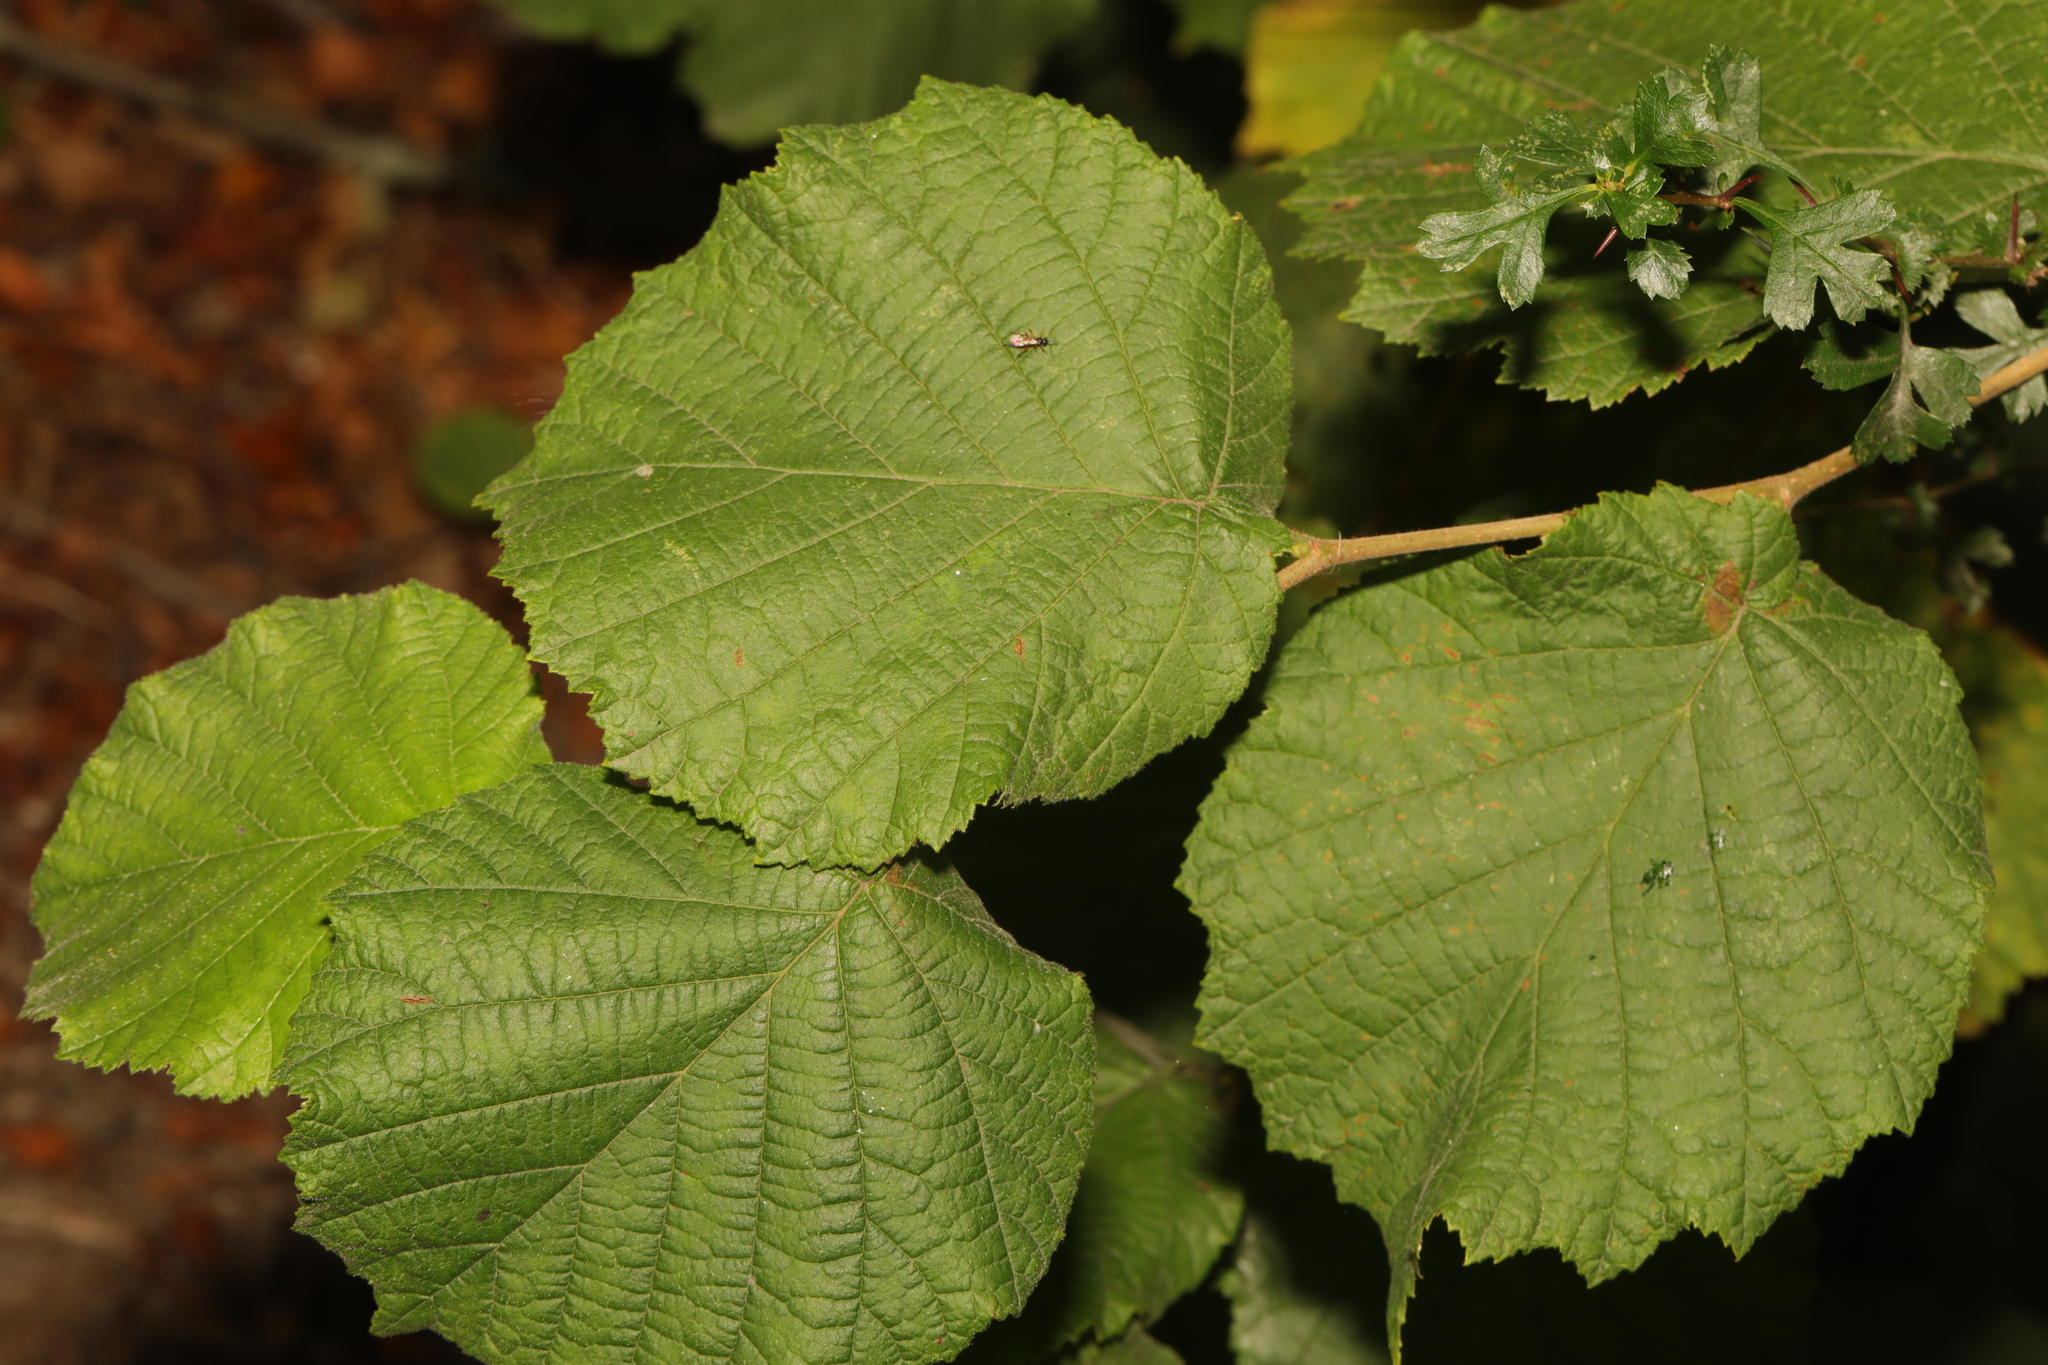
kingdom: Plantae
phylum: Tracheophyta
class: Magnoliopsida
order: Fagales
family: Betulaceae
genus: Corylus
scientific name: Corylus avellana
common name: European hazel
